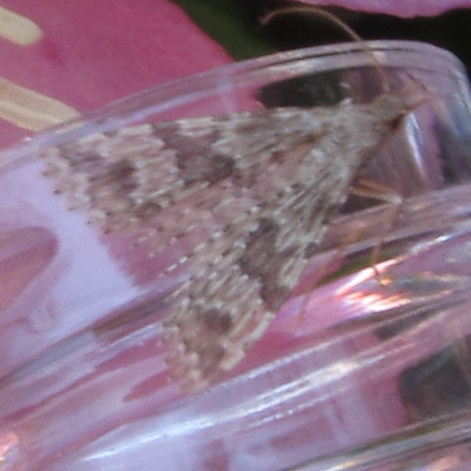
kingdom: Animalia
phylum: Arthropoda
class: Insecta
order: Lepidoptera
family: Alucitidae
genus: Alucita
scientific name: Alucita hexadactyla
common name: Twenty-plume moth
